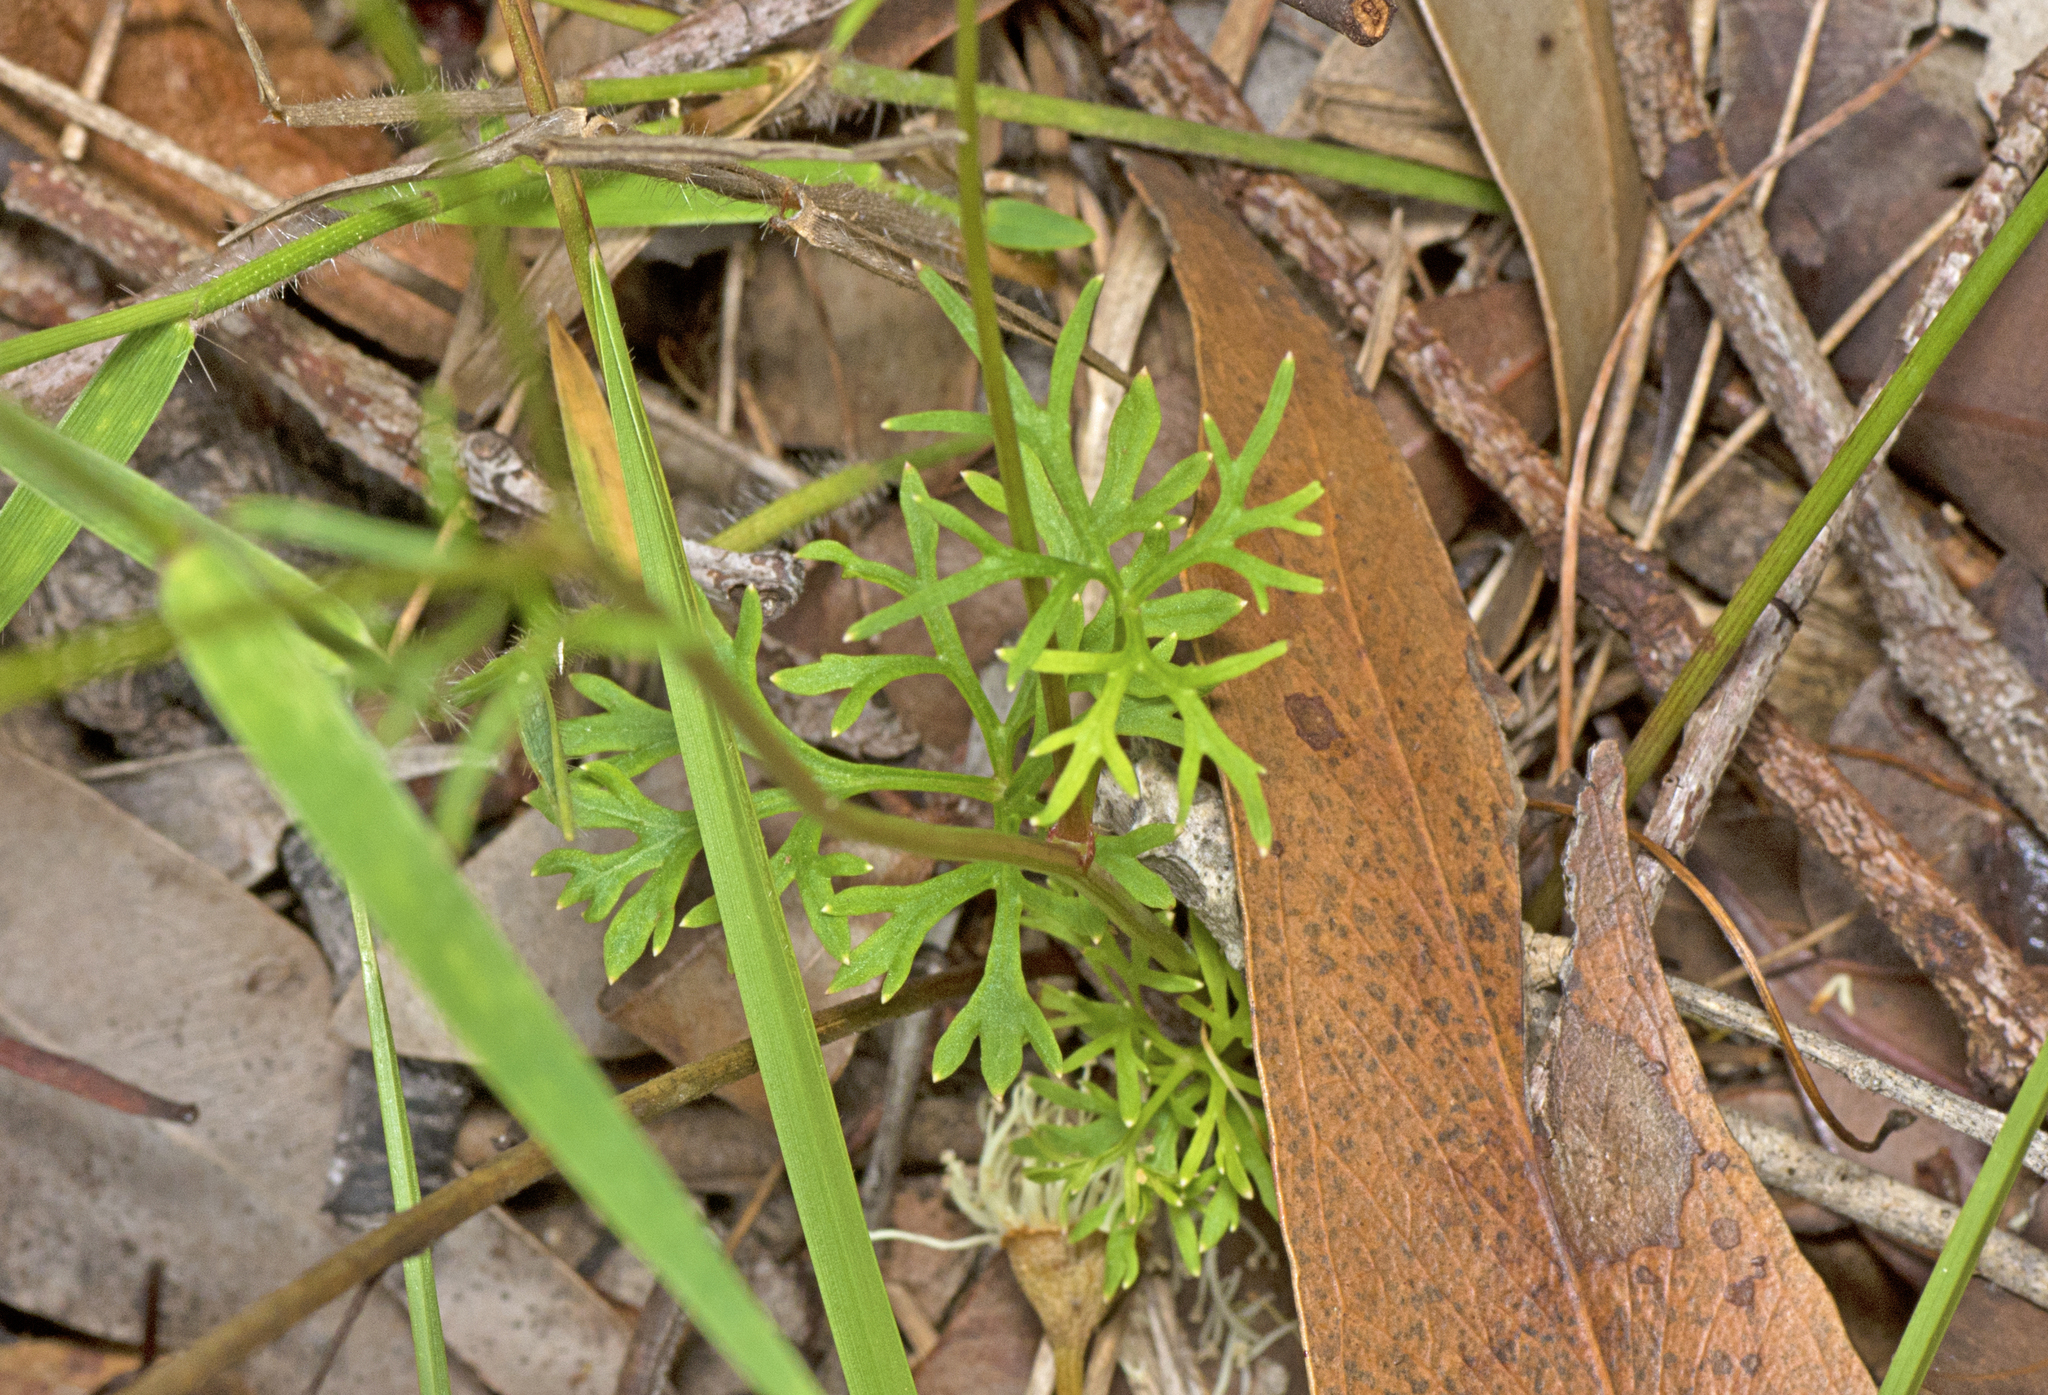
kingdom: Plantae
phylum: Tracheophyta
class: Magnoliopsida
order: Apiales
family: Araliaceae
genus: Trachymene
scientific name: Trachymene incisa
